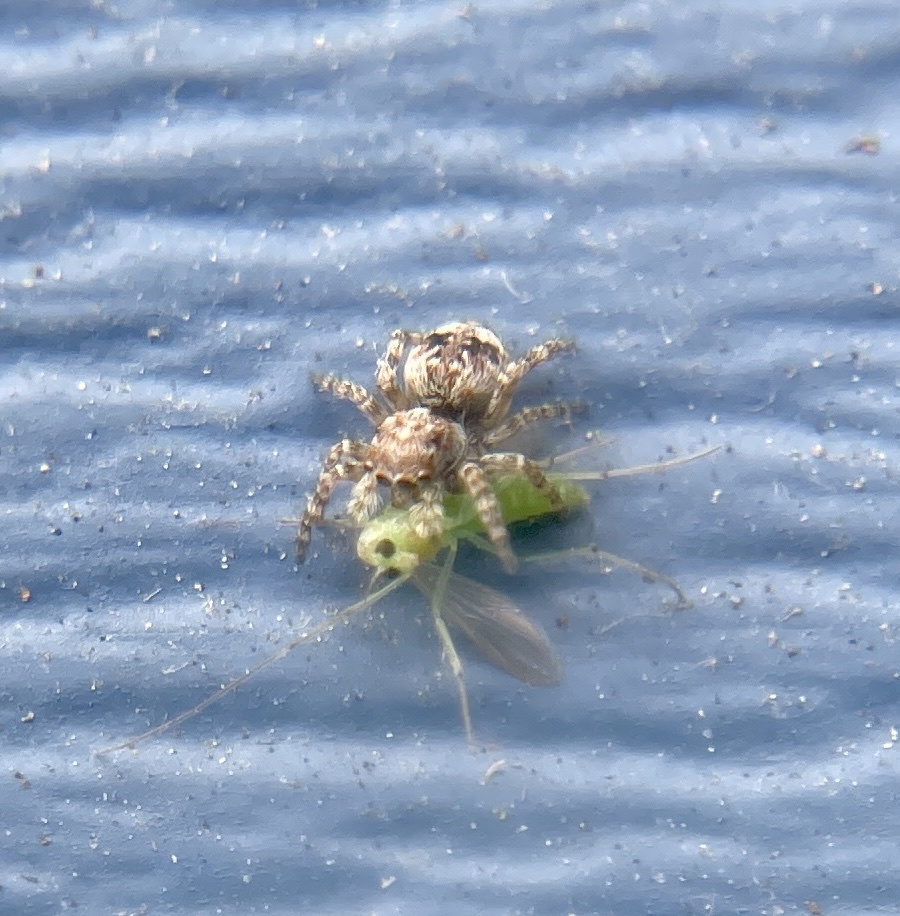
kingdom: Animalia
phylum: Arthropoda
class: Arachnida
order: Araneae
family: Salticidae
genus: Attulus
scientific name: Attulus fasciger
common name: Asiatic wall jumping spider
